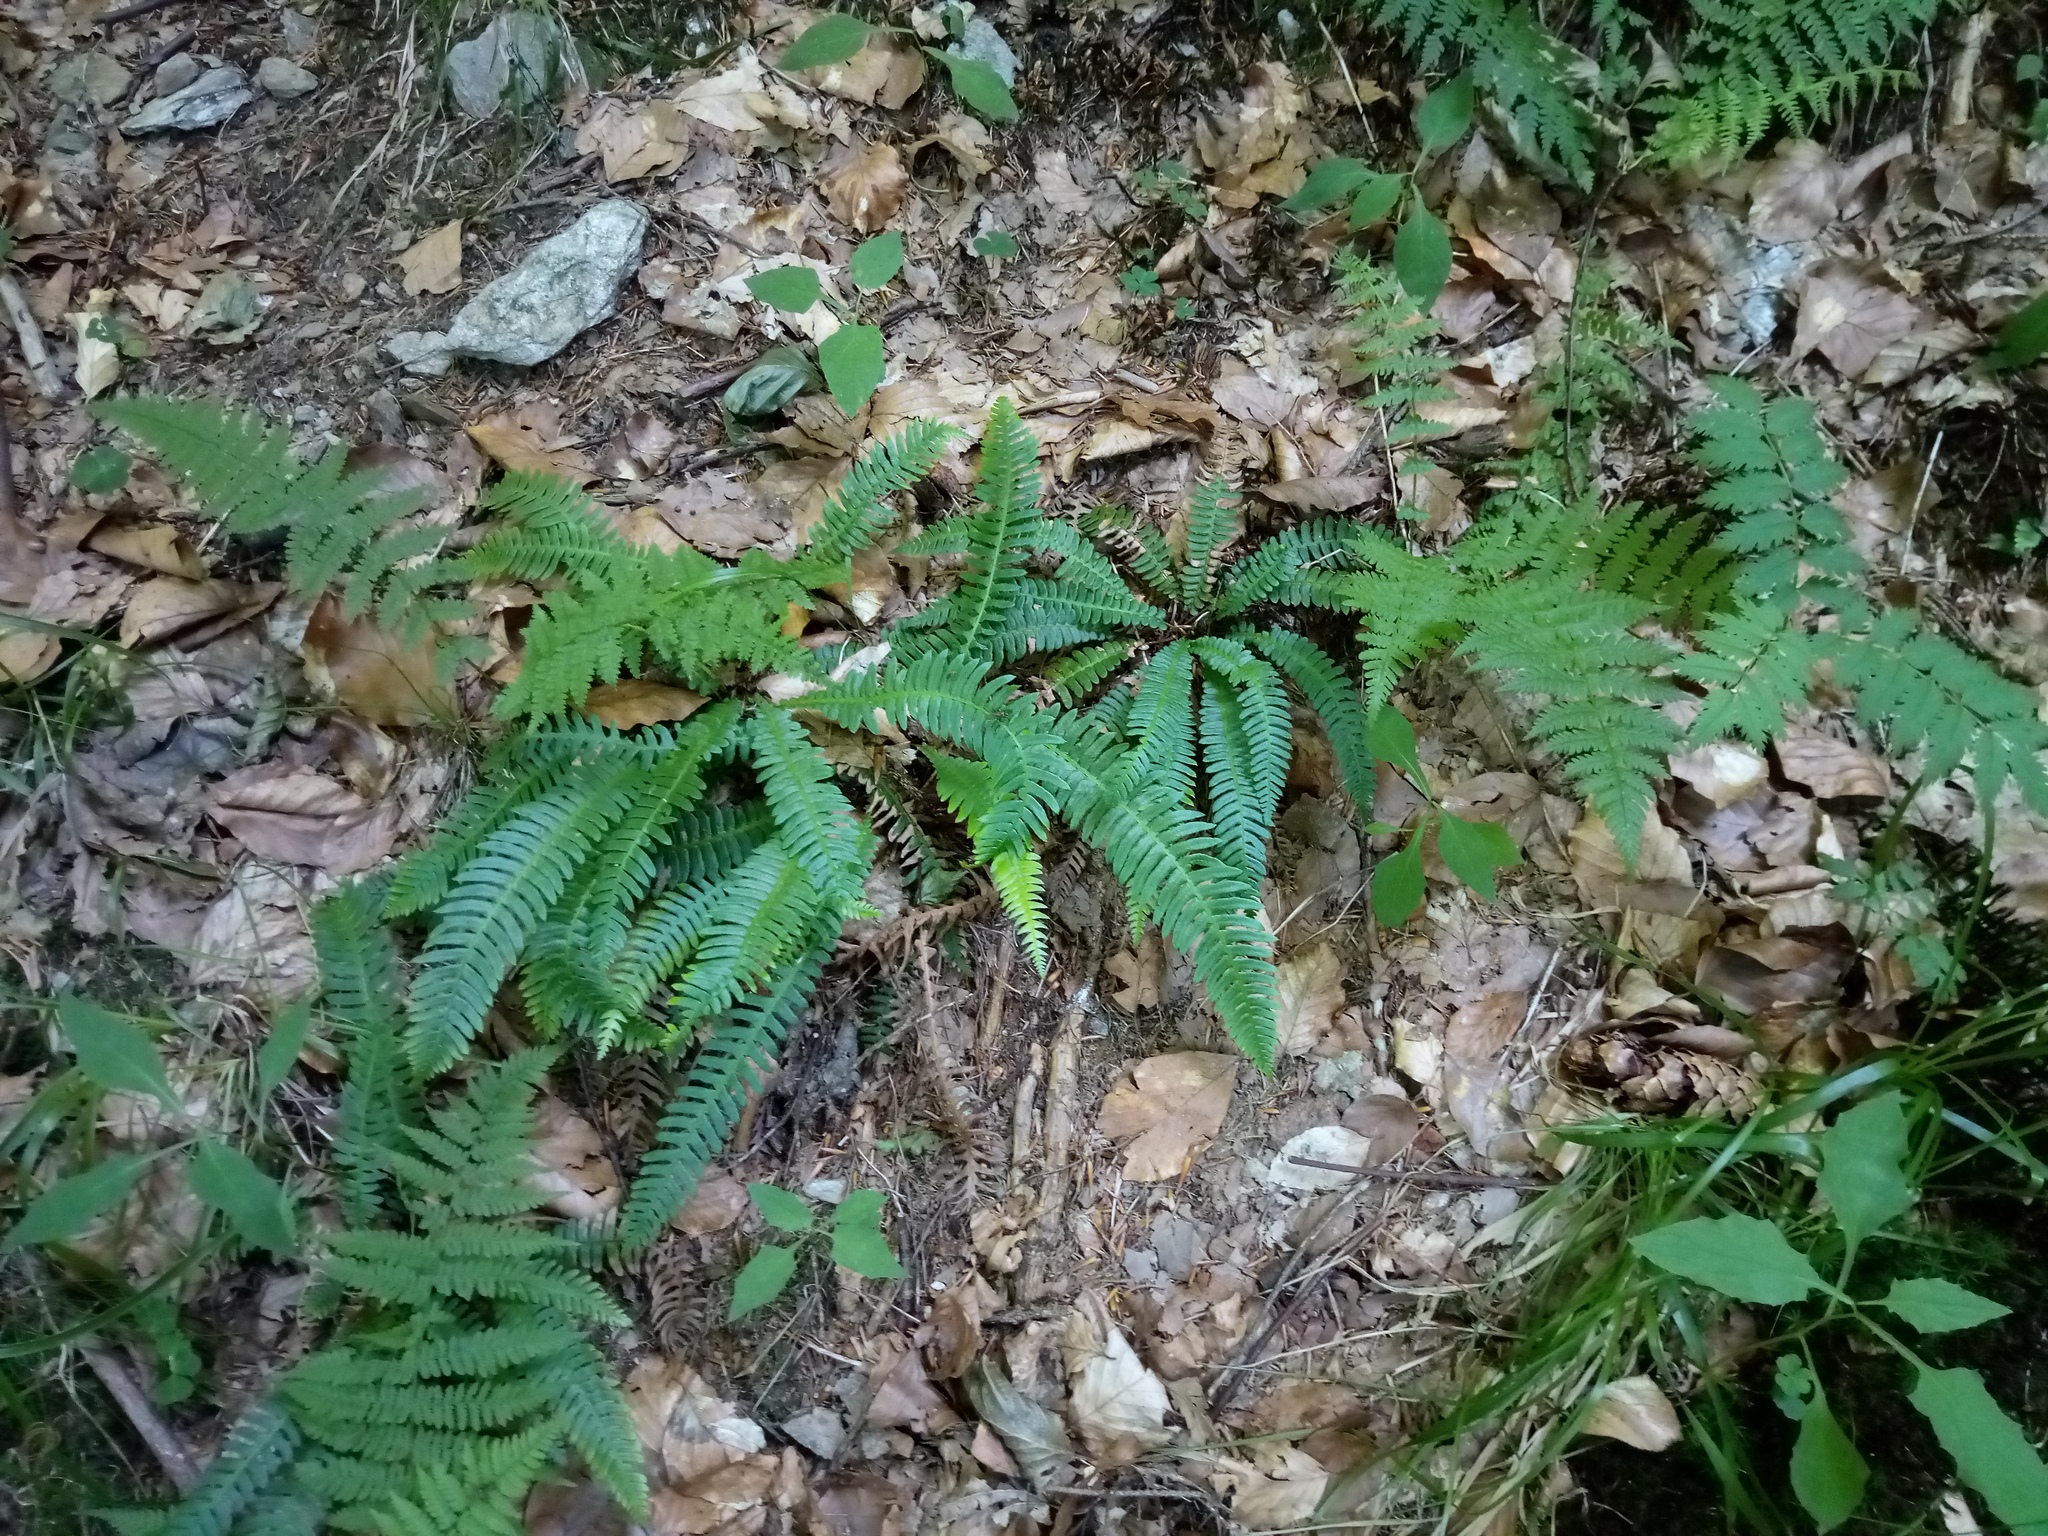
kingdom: Plantae
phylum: Tracheophyta
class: Polypodiopsida
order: Polypodiales
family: Blechnaceae
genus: Struthiopteris
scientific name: Struthiopteris spicant
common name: Deer fern
